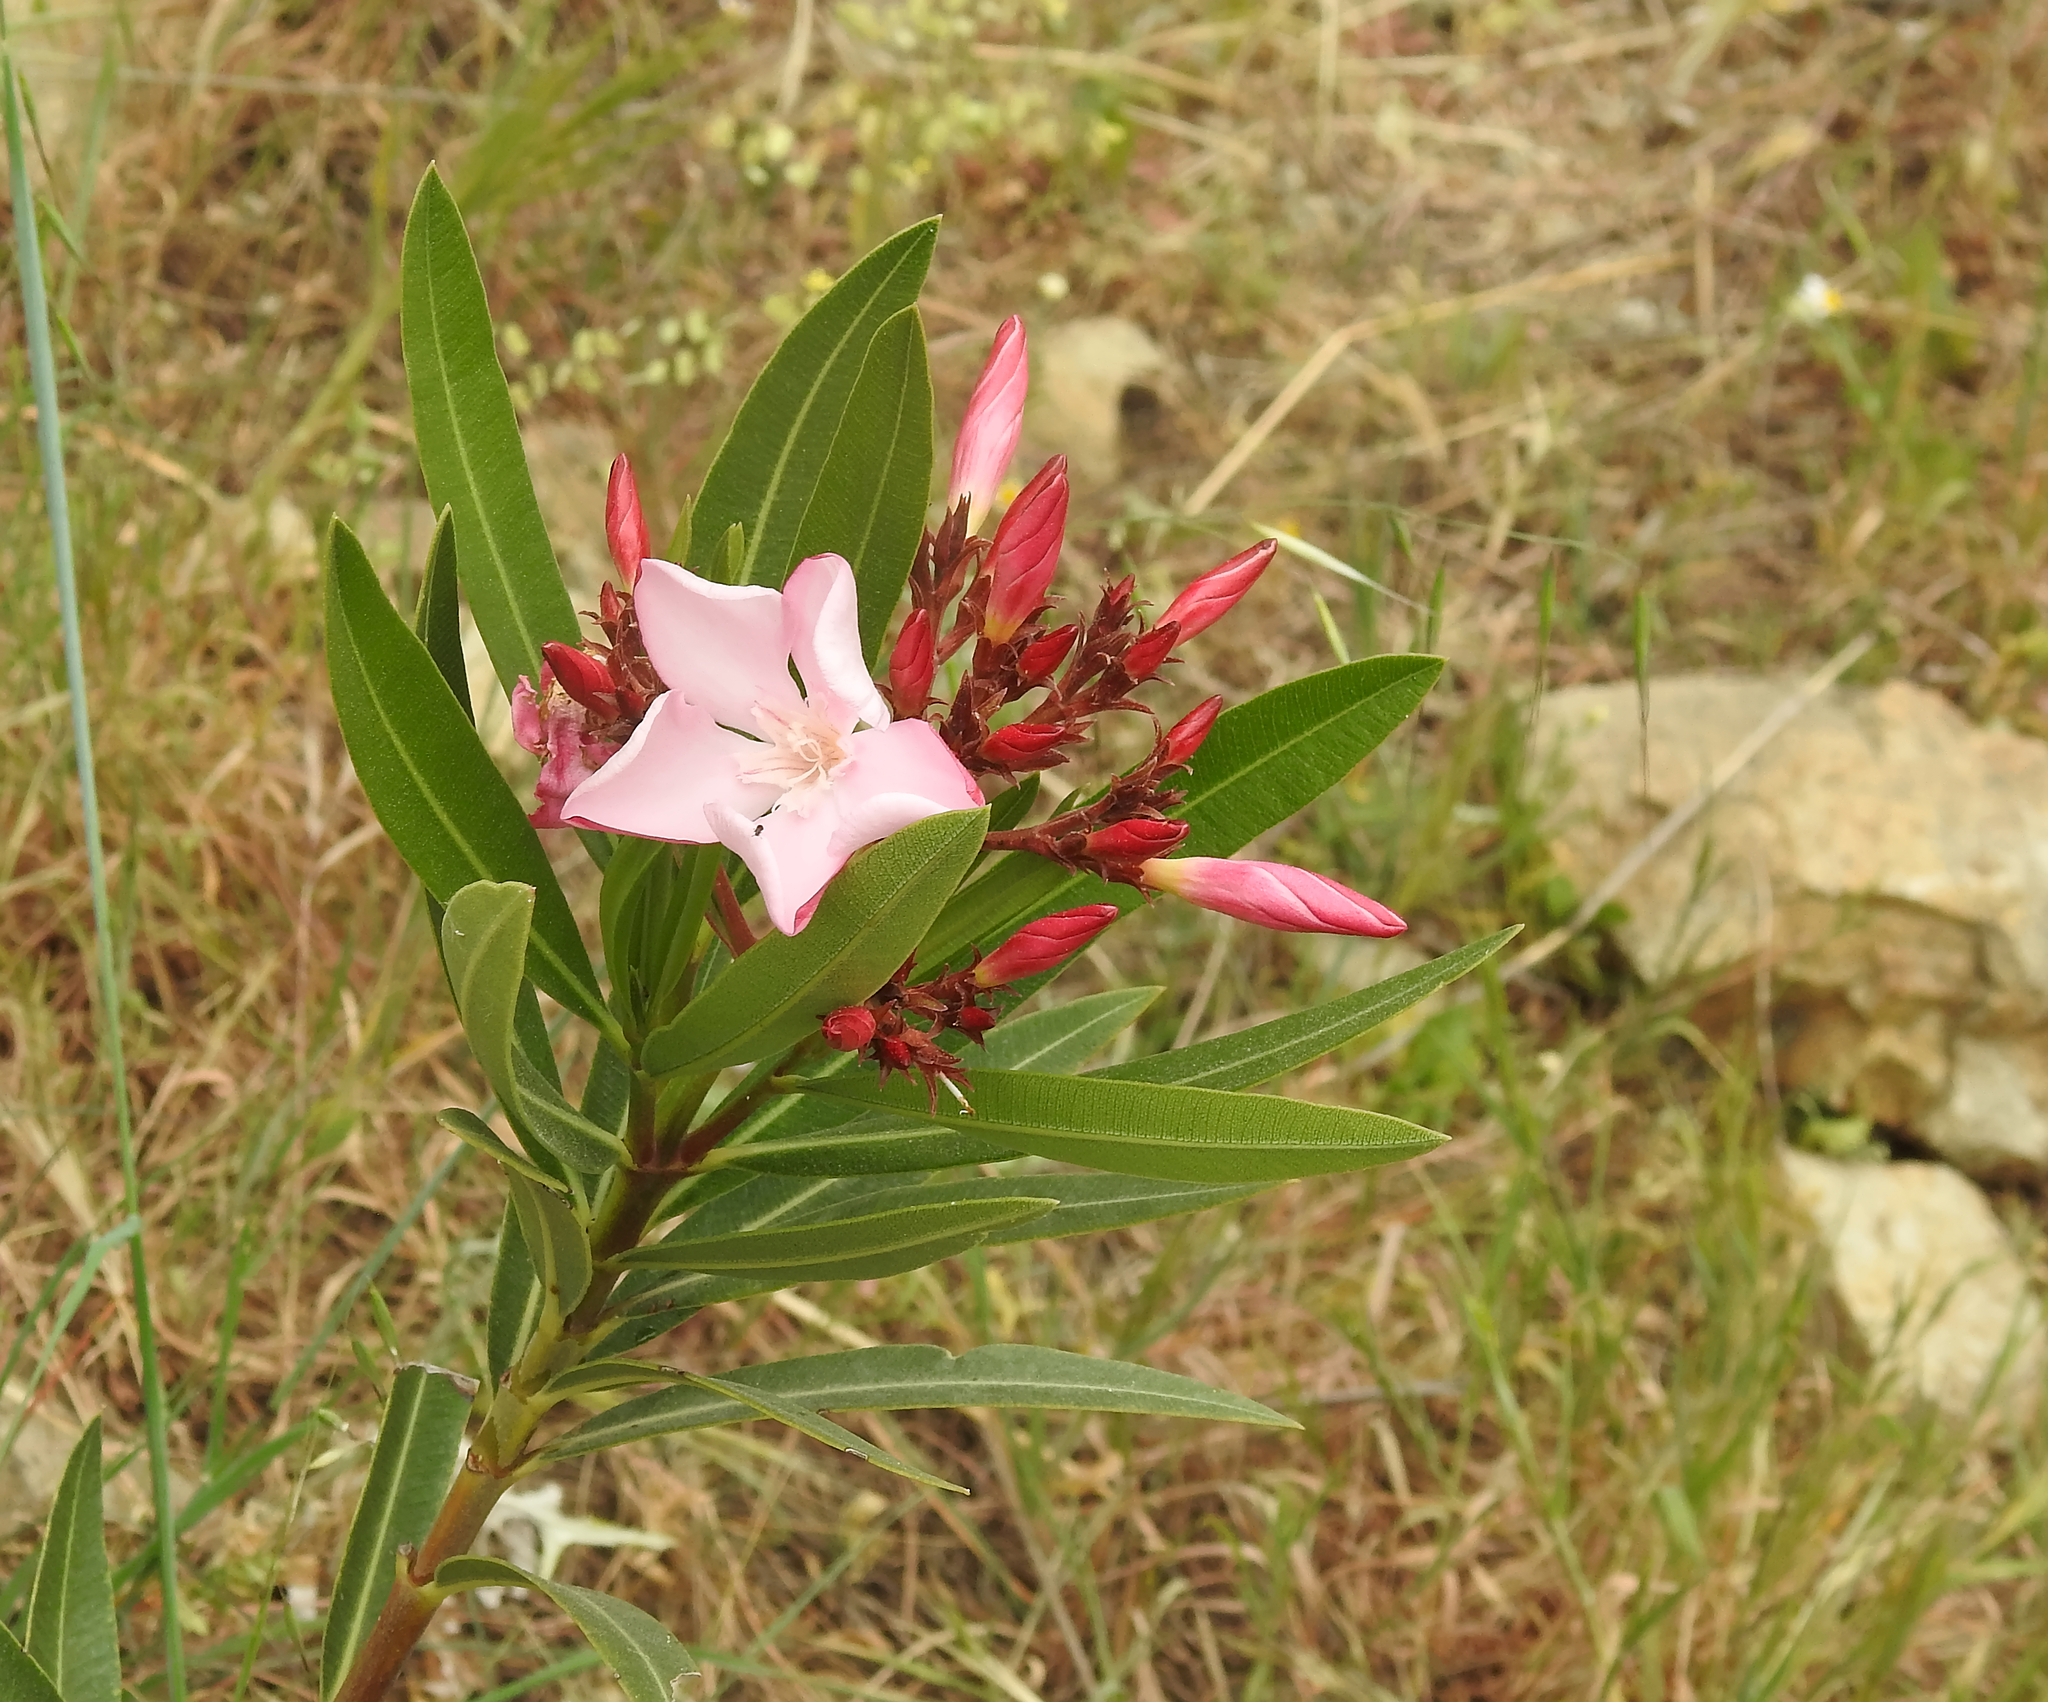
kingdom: Plantae
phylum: Tracheophyta
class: Magnoliopsida
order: Gentianales
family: Apocynaceae
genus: Nerium
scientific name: Nerium oleander
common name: Oleander
